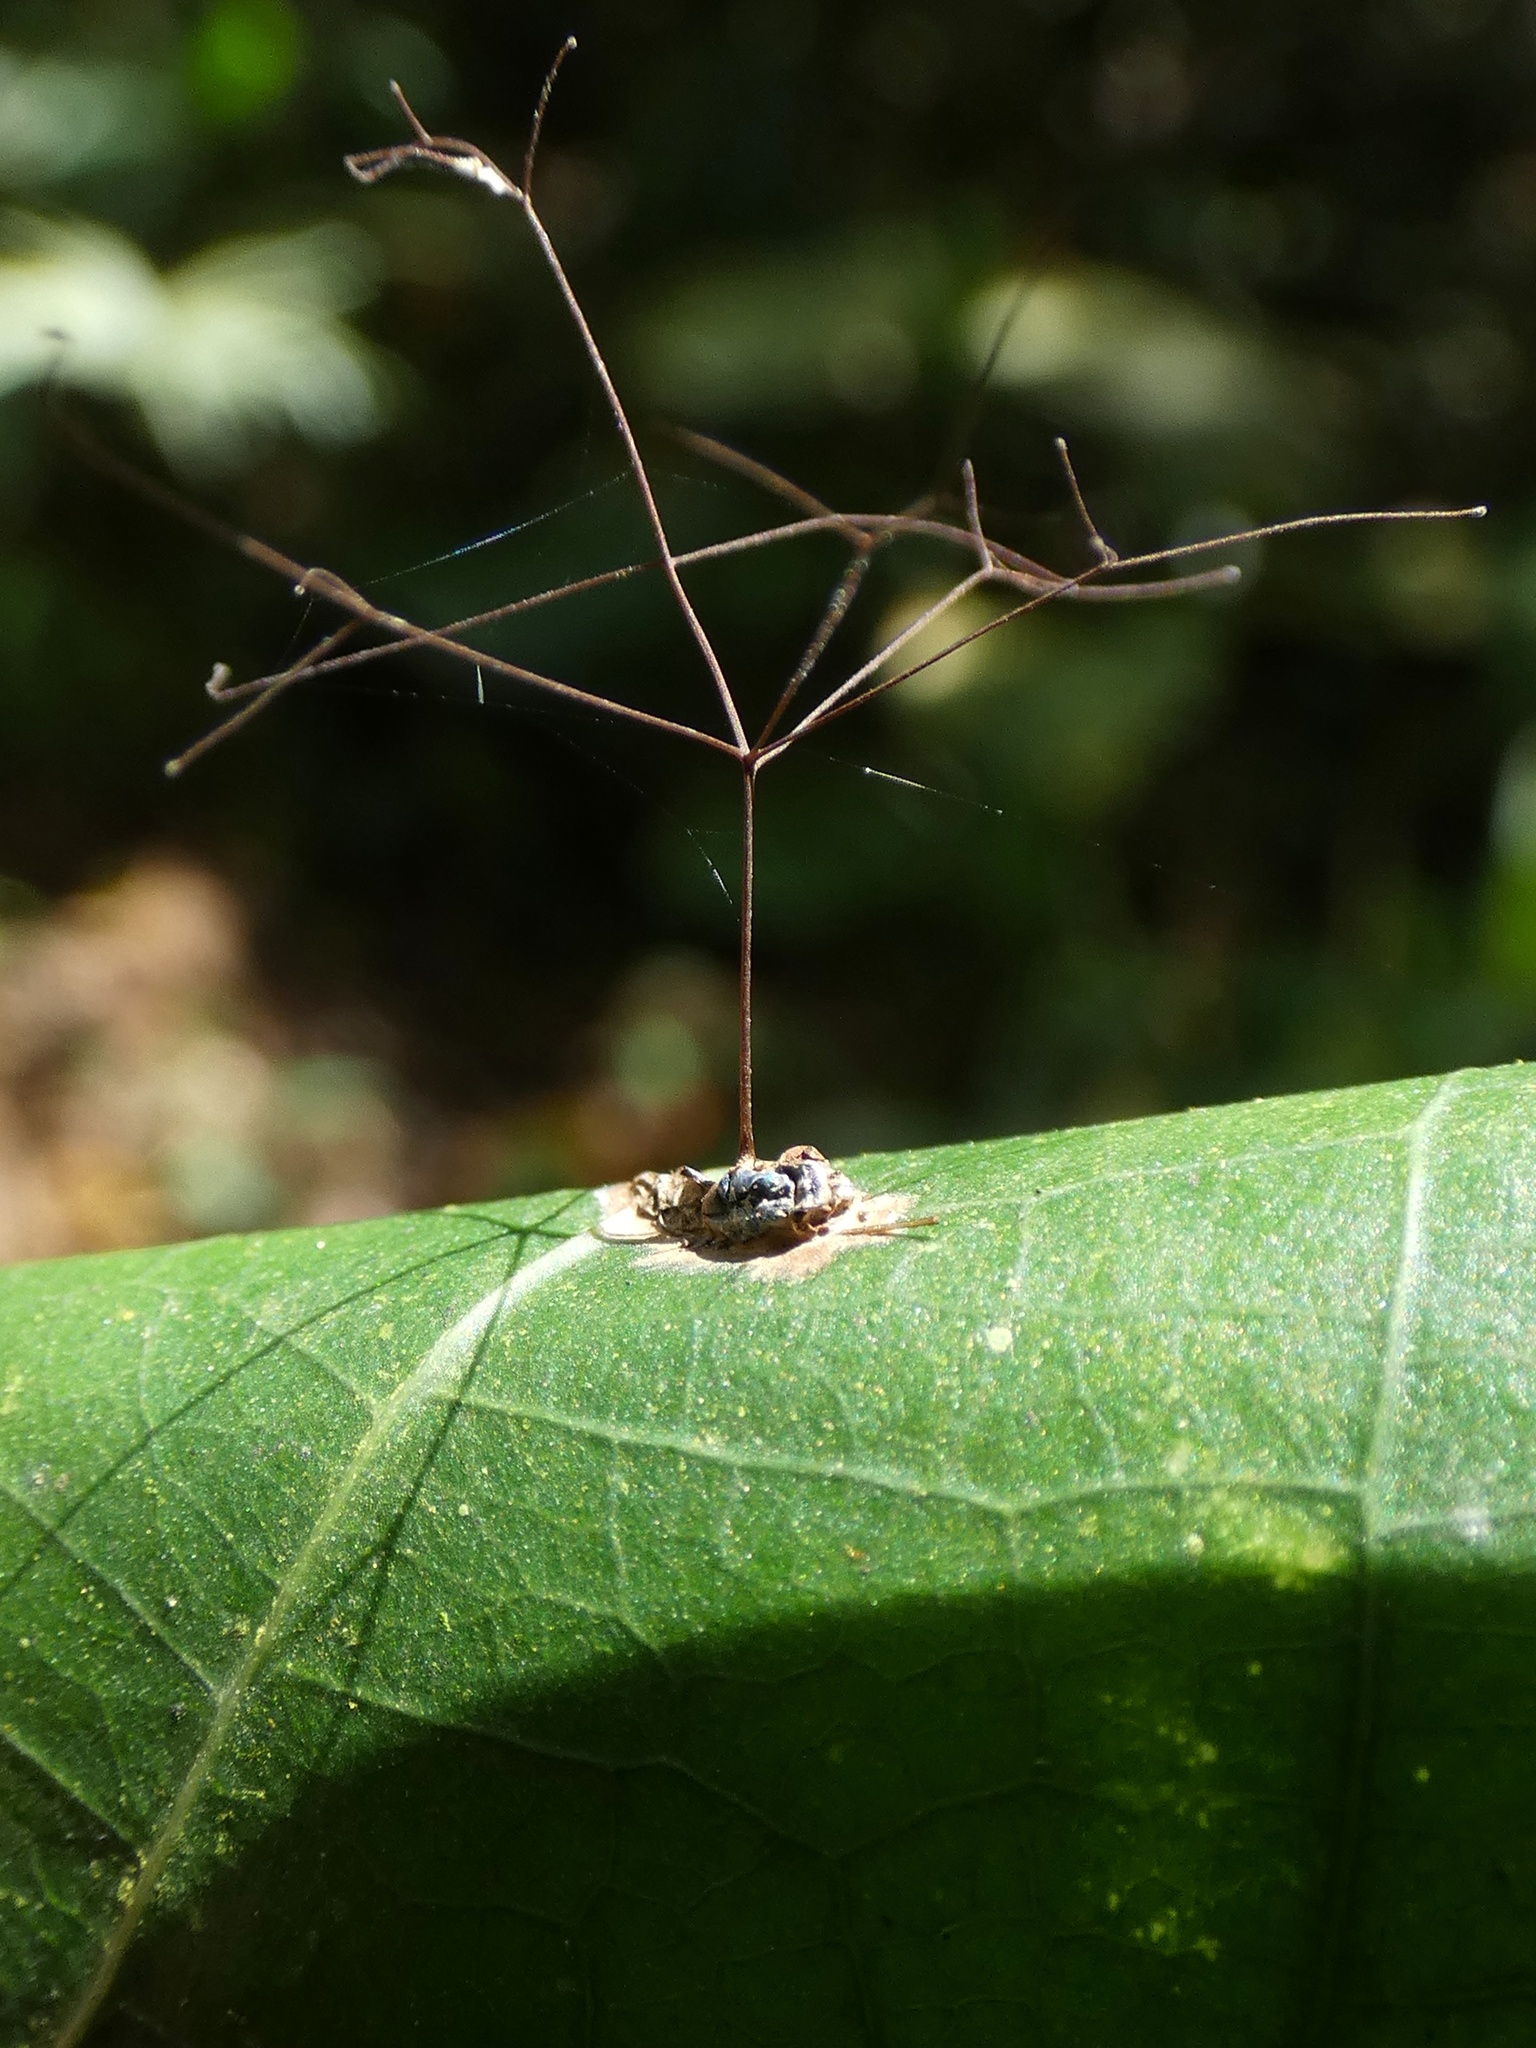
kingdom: Fungi
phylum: Ascomycota
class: Sordariomycetes
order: Hypocreales
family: Ophiocordycipitaceae
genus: Ophiocordyceps
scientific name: Ophiocordyceps humbertii
